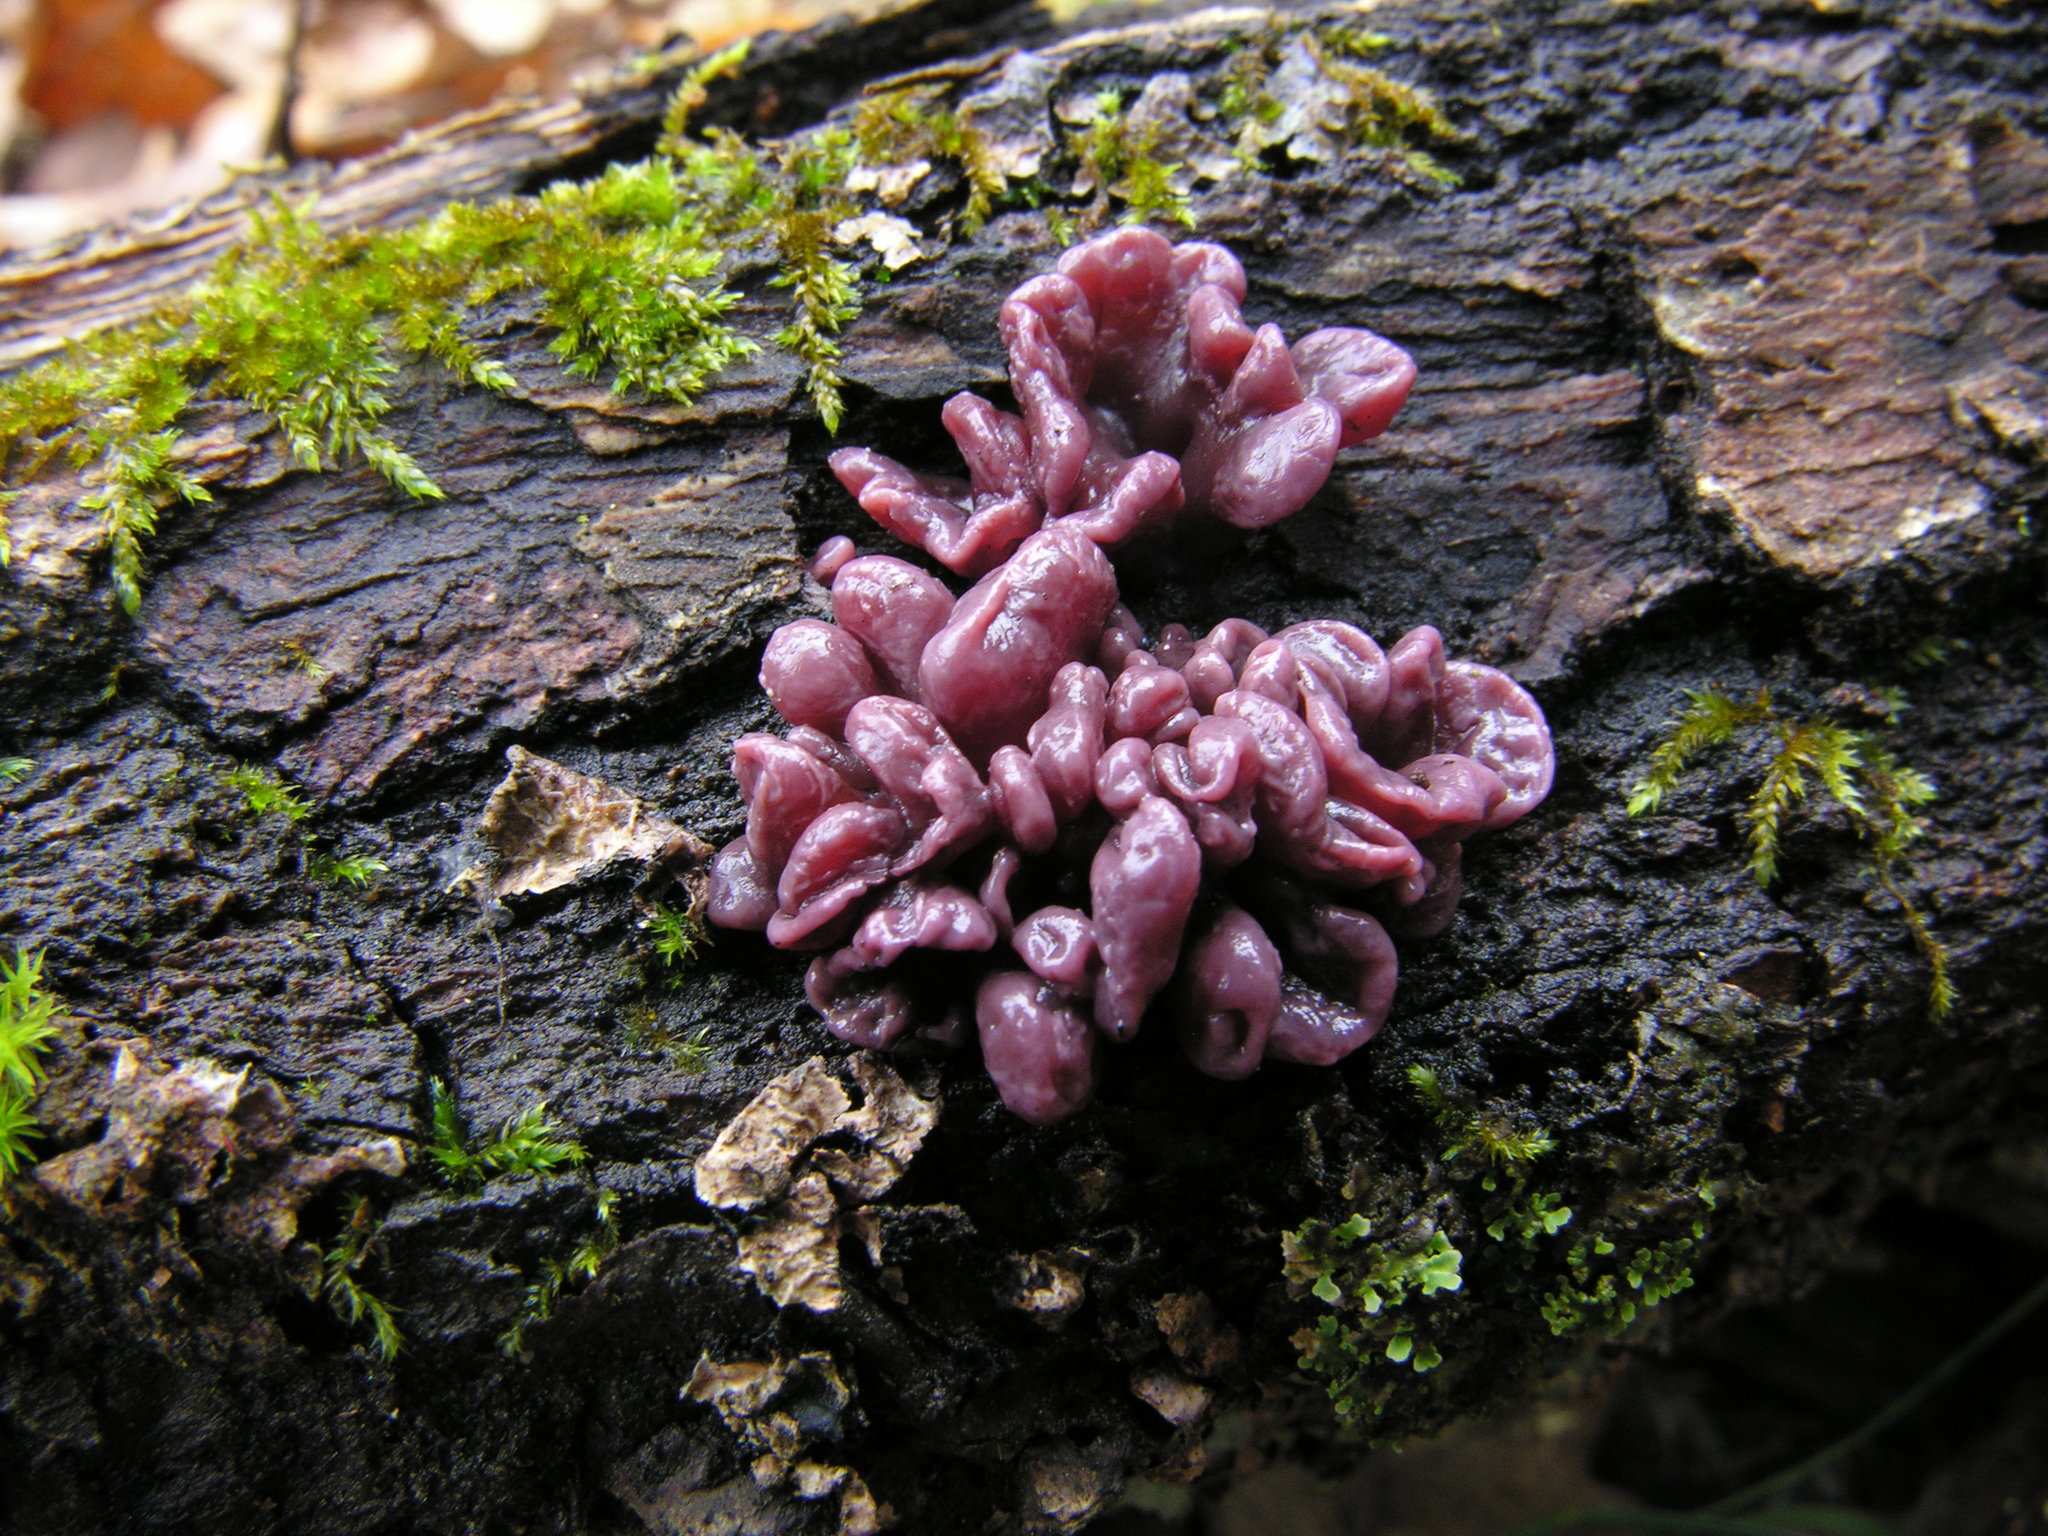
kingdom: Fungi
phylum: Ascomycota
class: Leotiomycetes
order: Helotiales
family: Gelatinodiscaceae
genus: Ascocoryne
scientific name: Ascocoryne sarcoides
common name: Purple jellydisc
